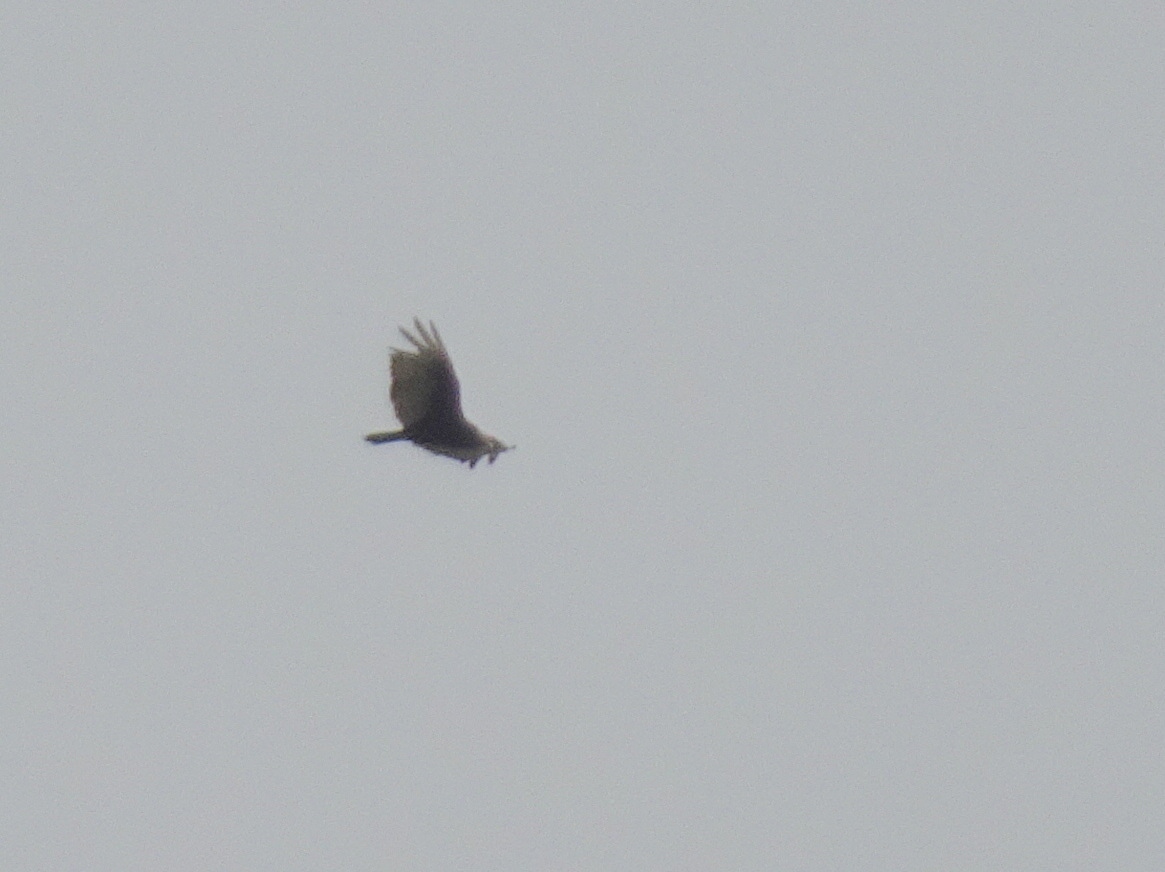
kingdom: Animalia
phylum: Chordata
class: Aves
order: Accipitriformes
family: Cathartidae
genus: Cathartes
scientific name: Cathartes aura
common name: Turkey vulture
